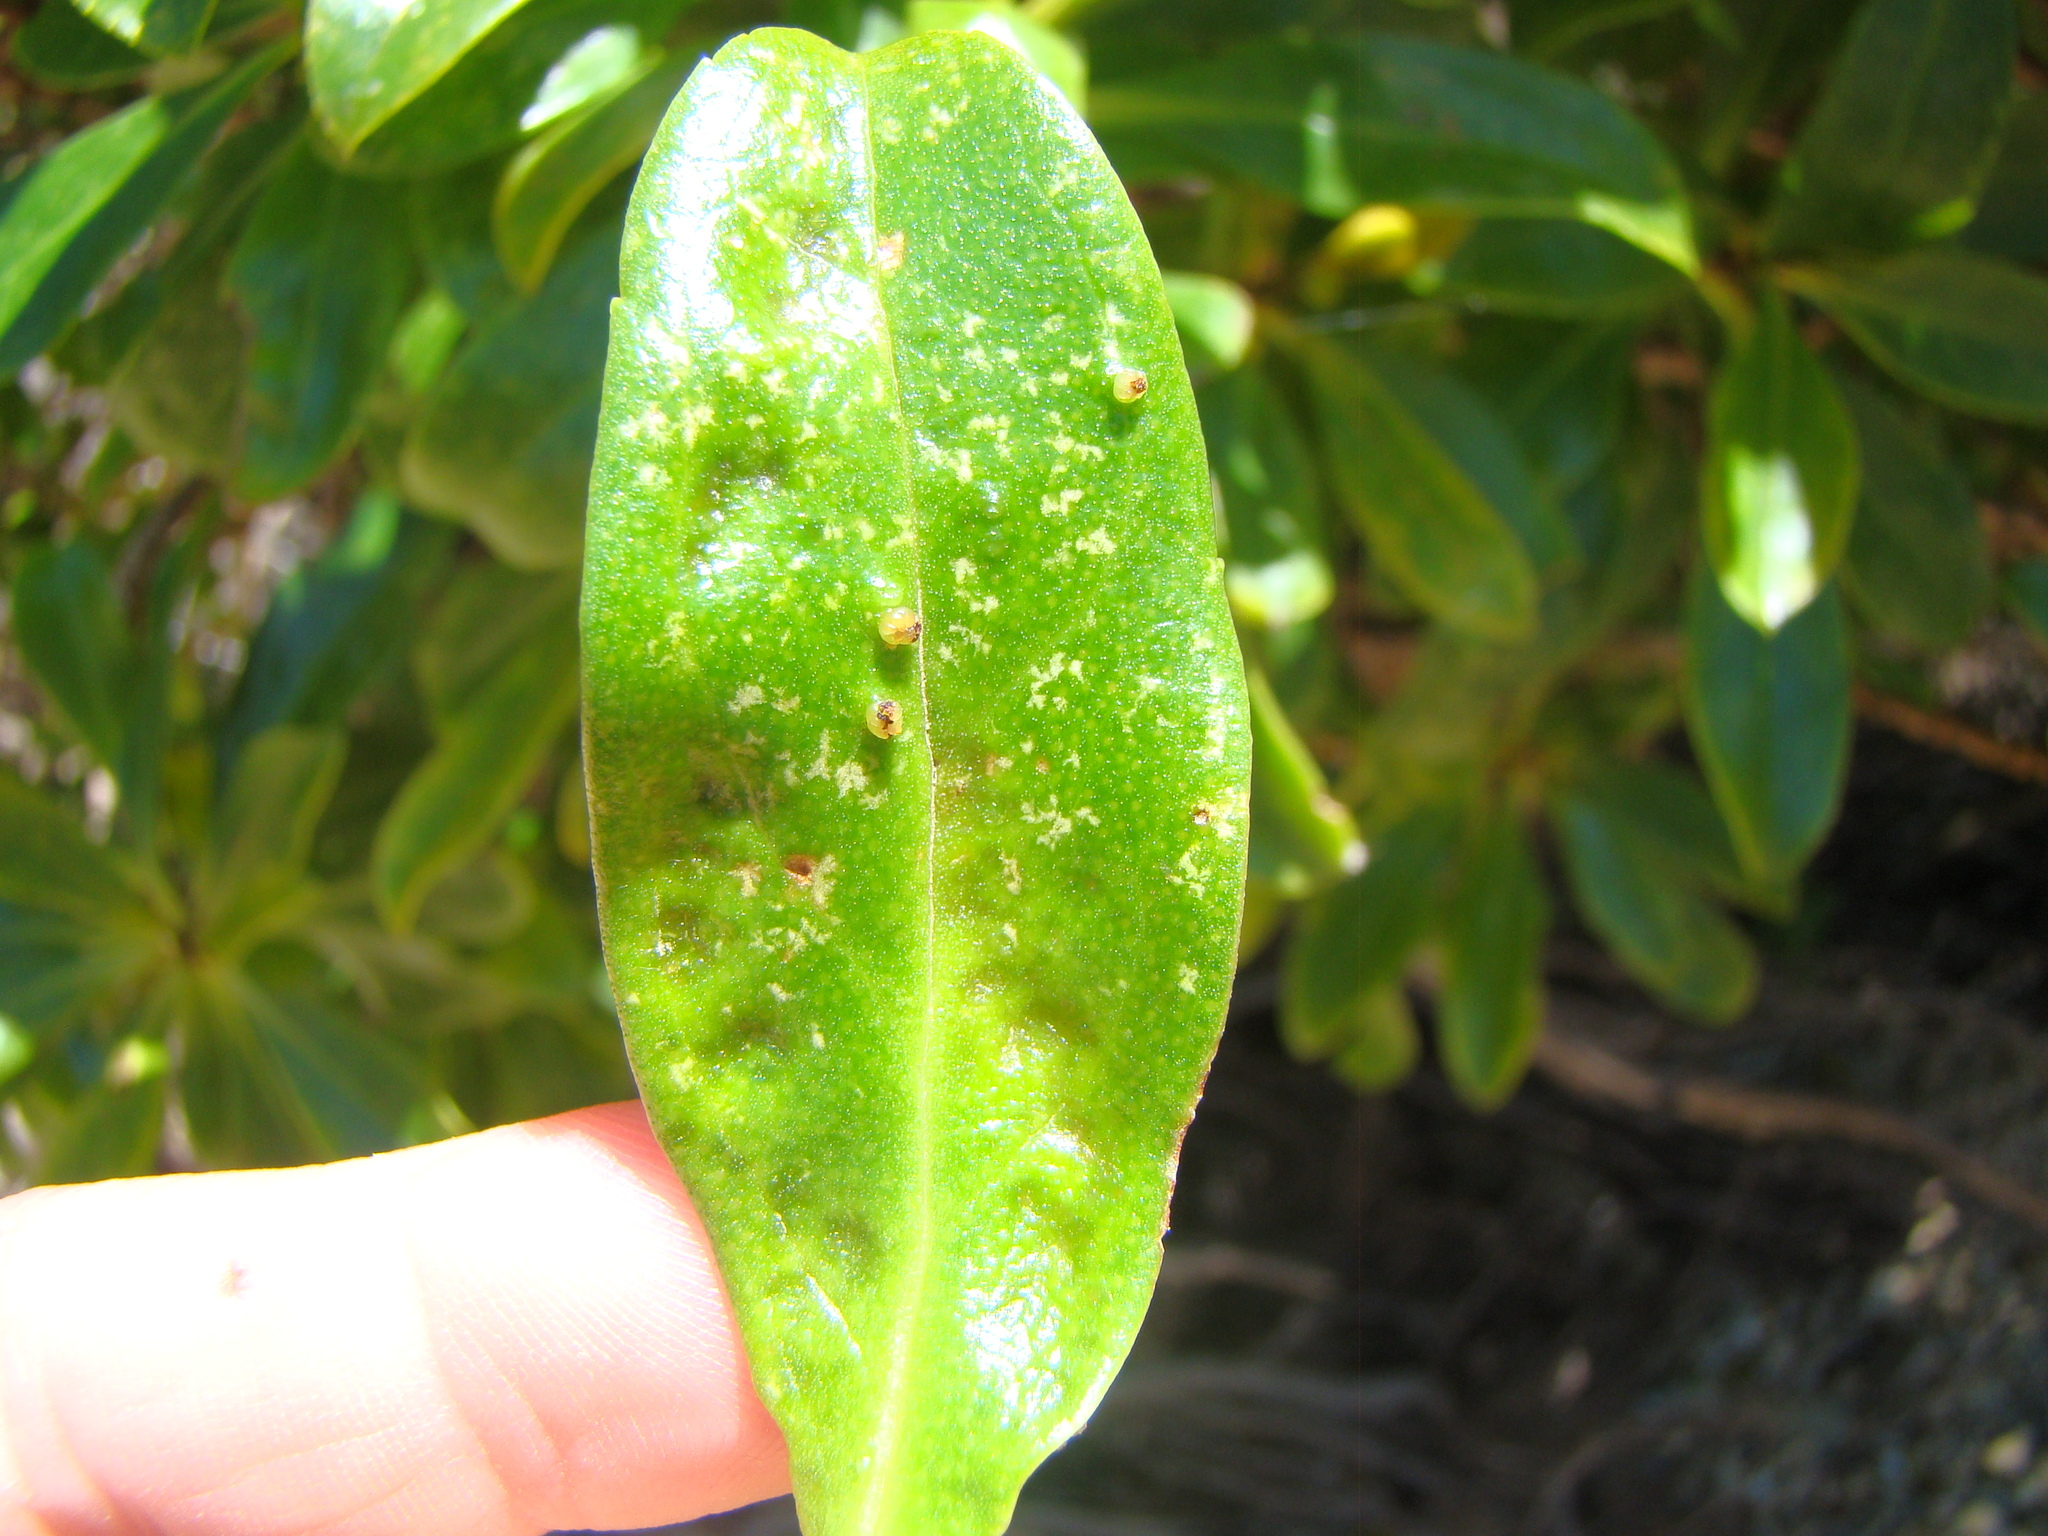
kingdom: Animalia
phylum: Arthropoda
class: Arachnida
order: Trombidiformes
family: Eriophyidae
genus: Aceria
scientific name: Aceria healyi
